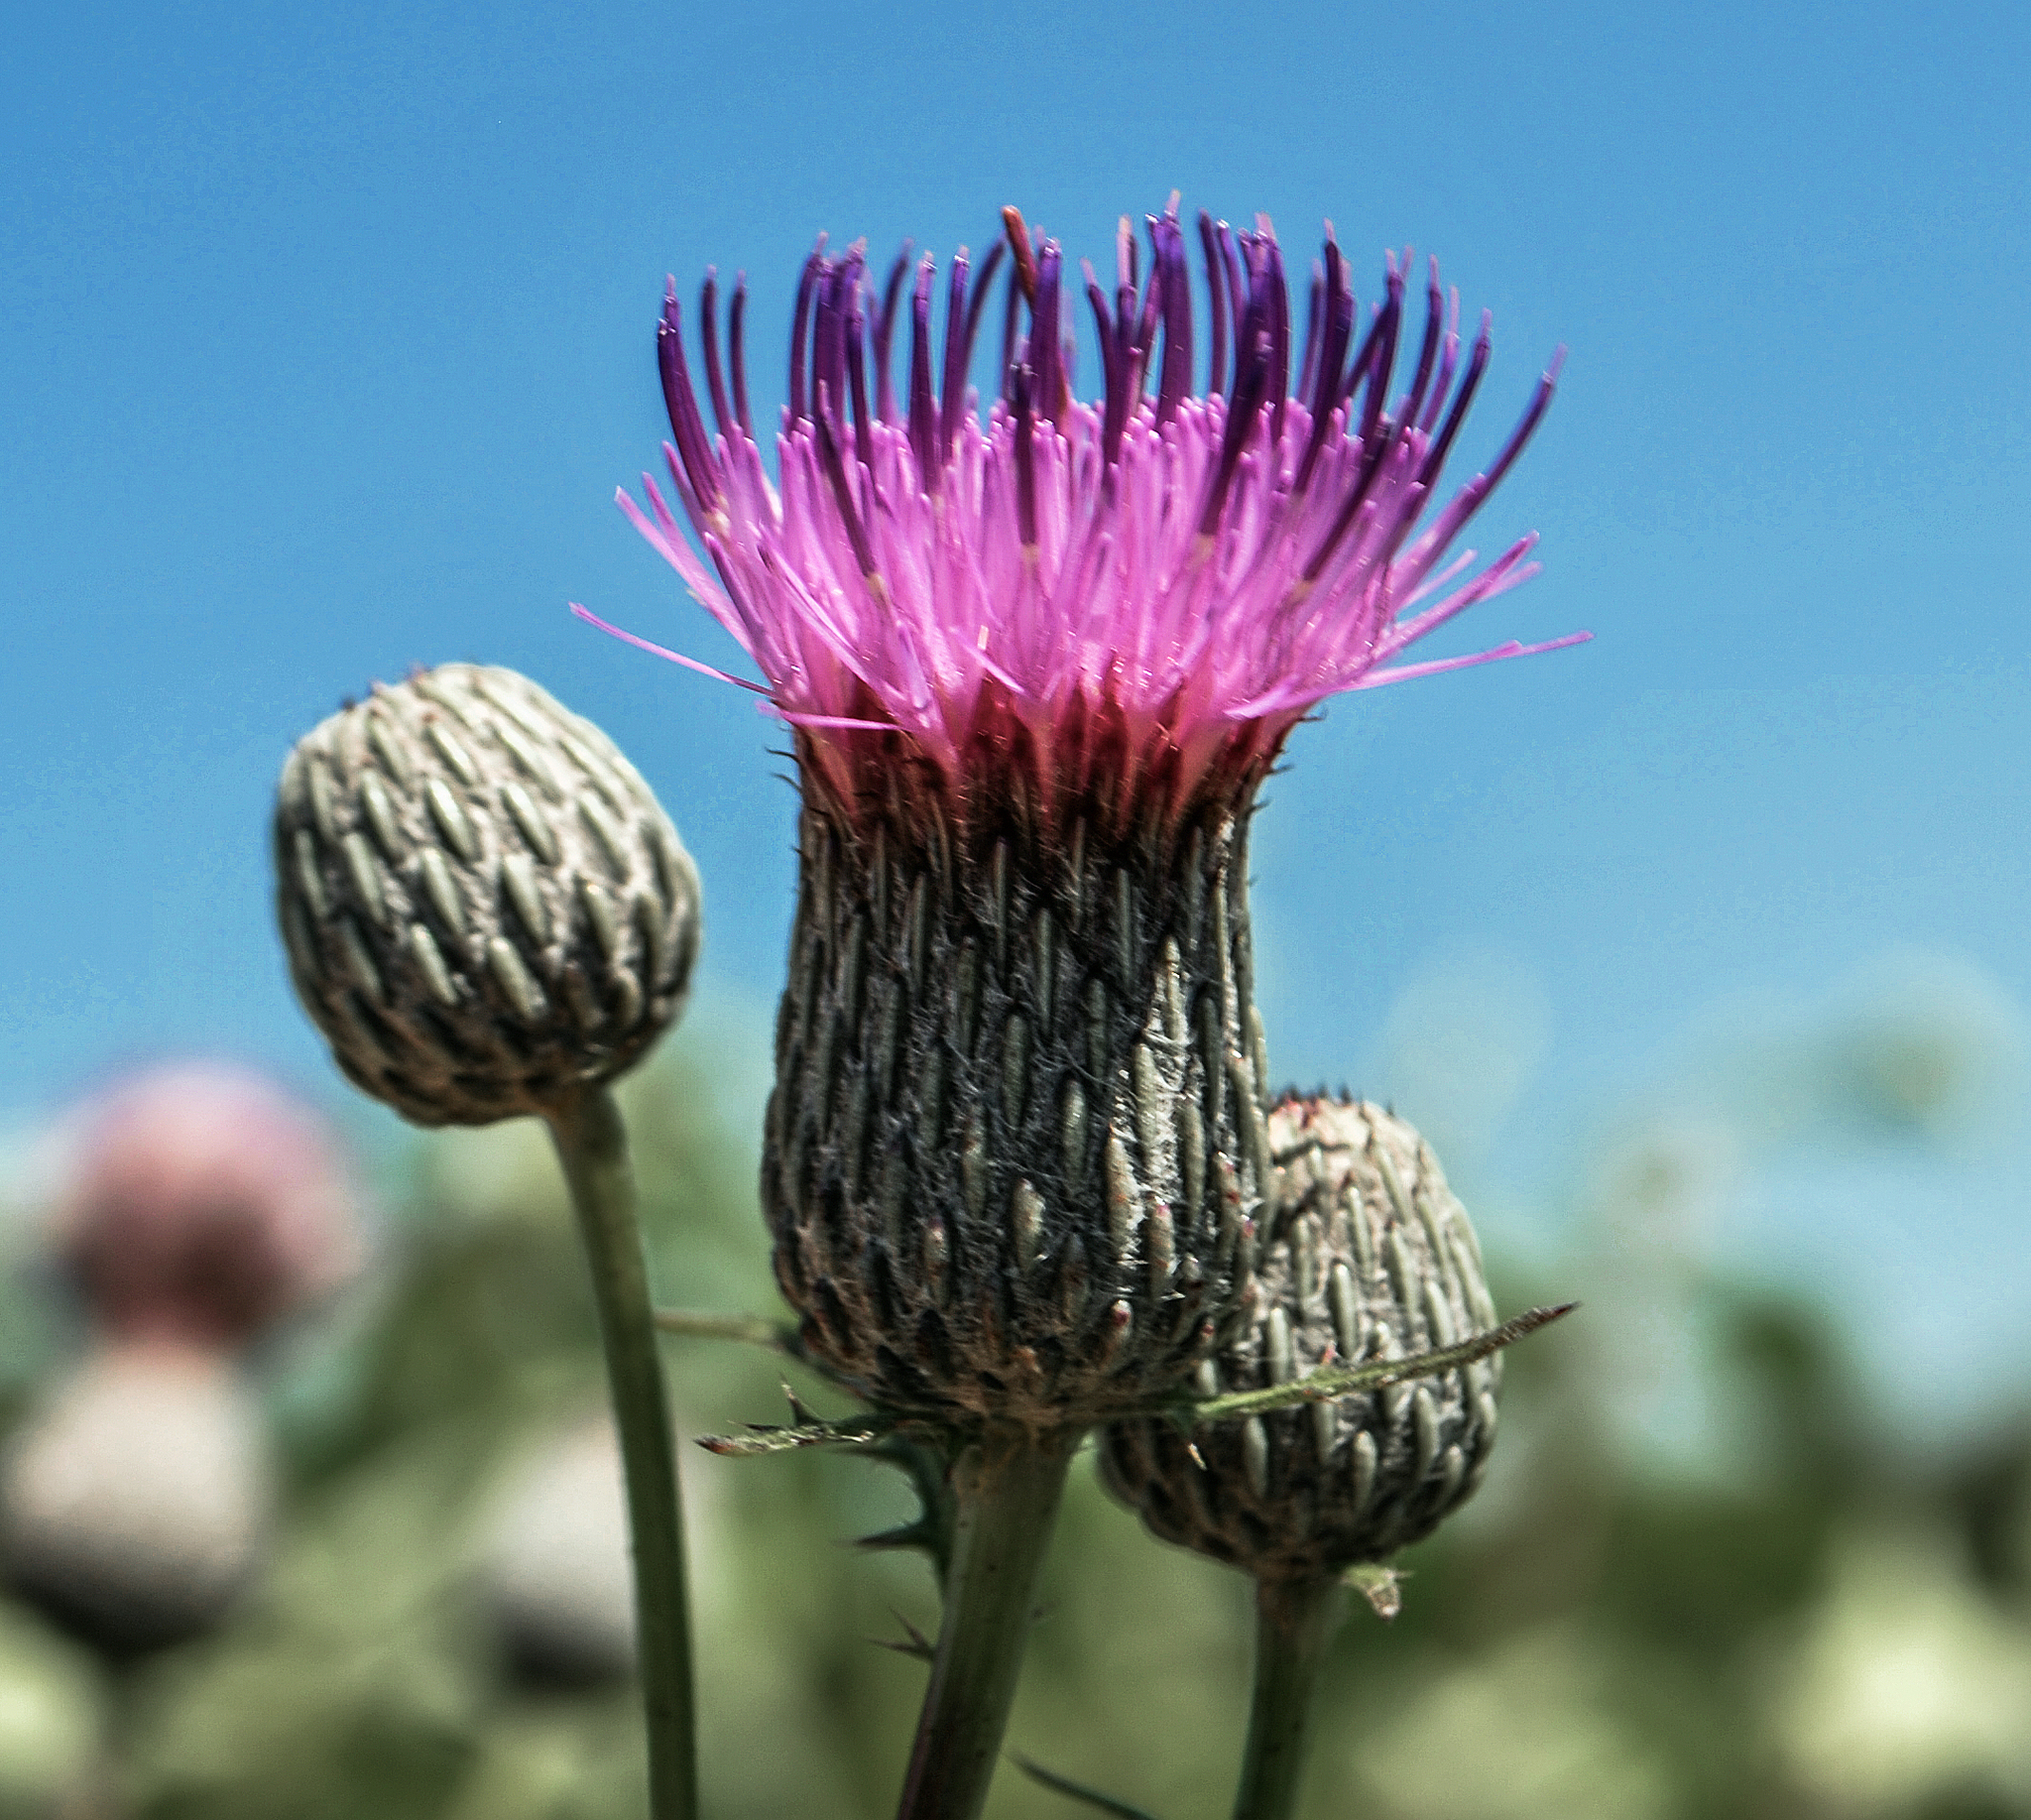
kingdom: Plantae
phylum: Tracheophyta
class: Magnoliopsida
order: Asterales
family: Asteraceae
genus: Cirsium
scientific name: Cirsium muticum
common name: Dunce-nettle
